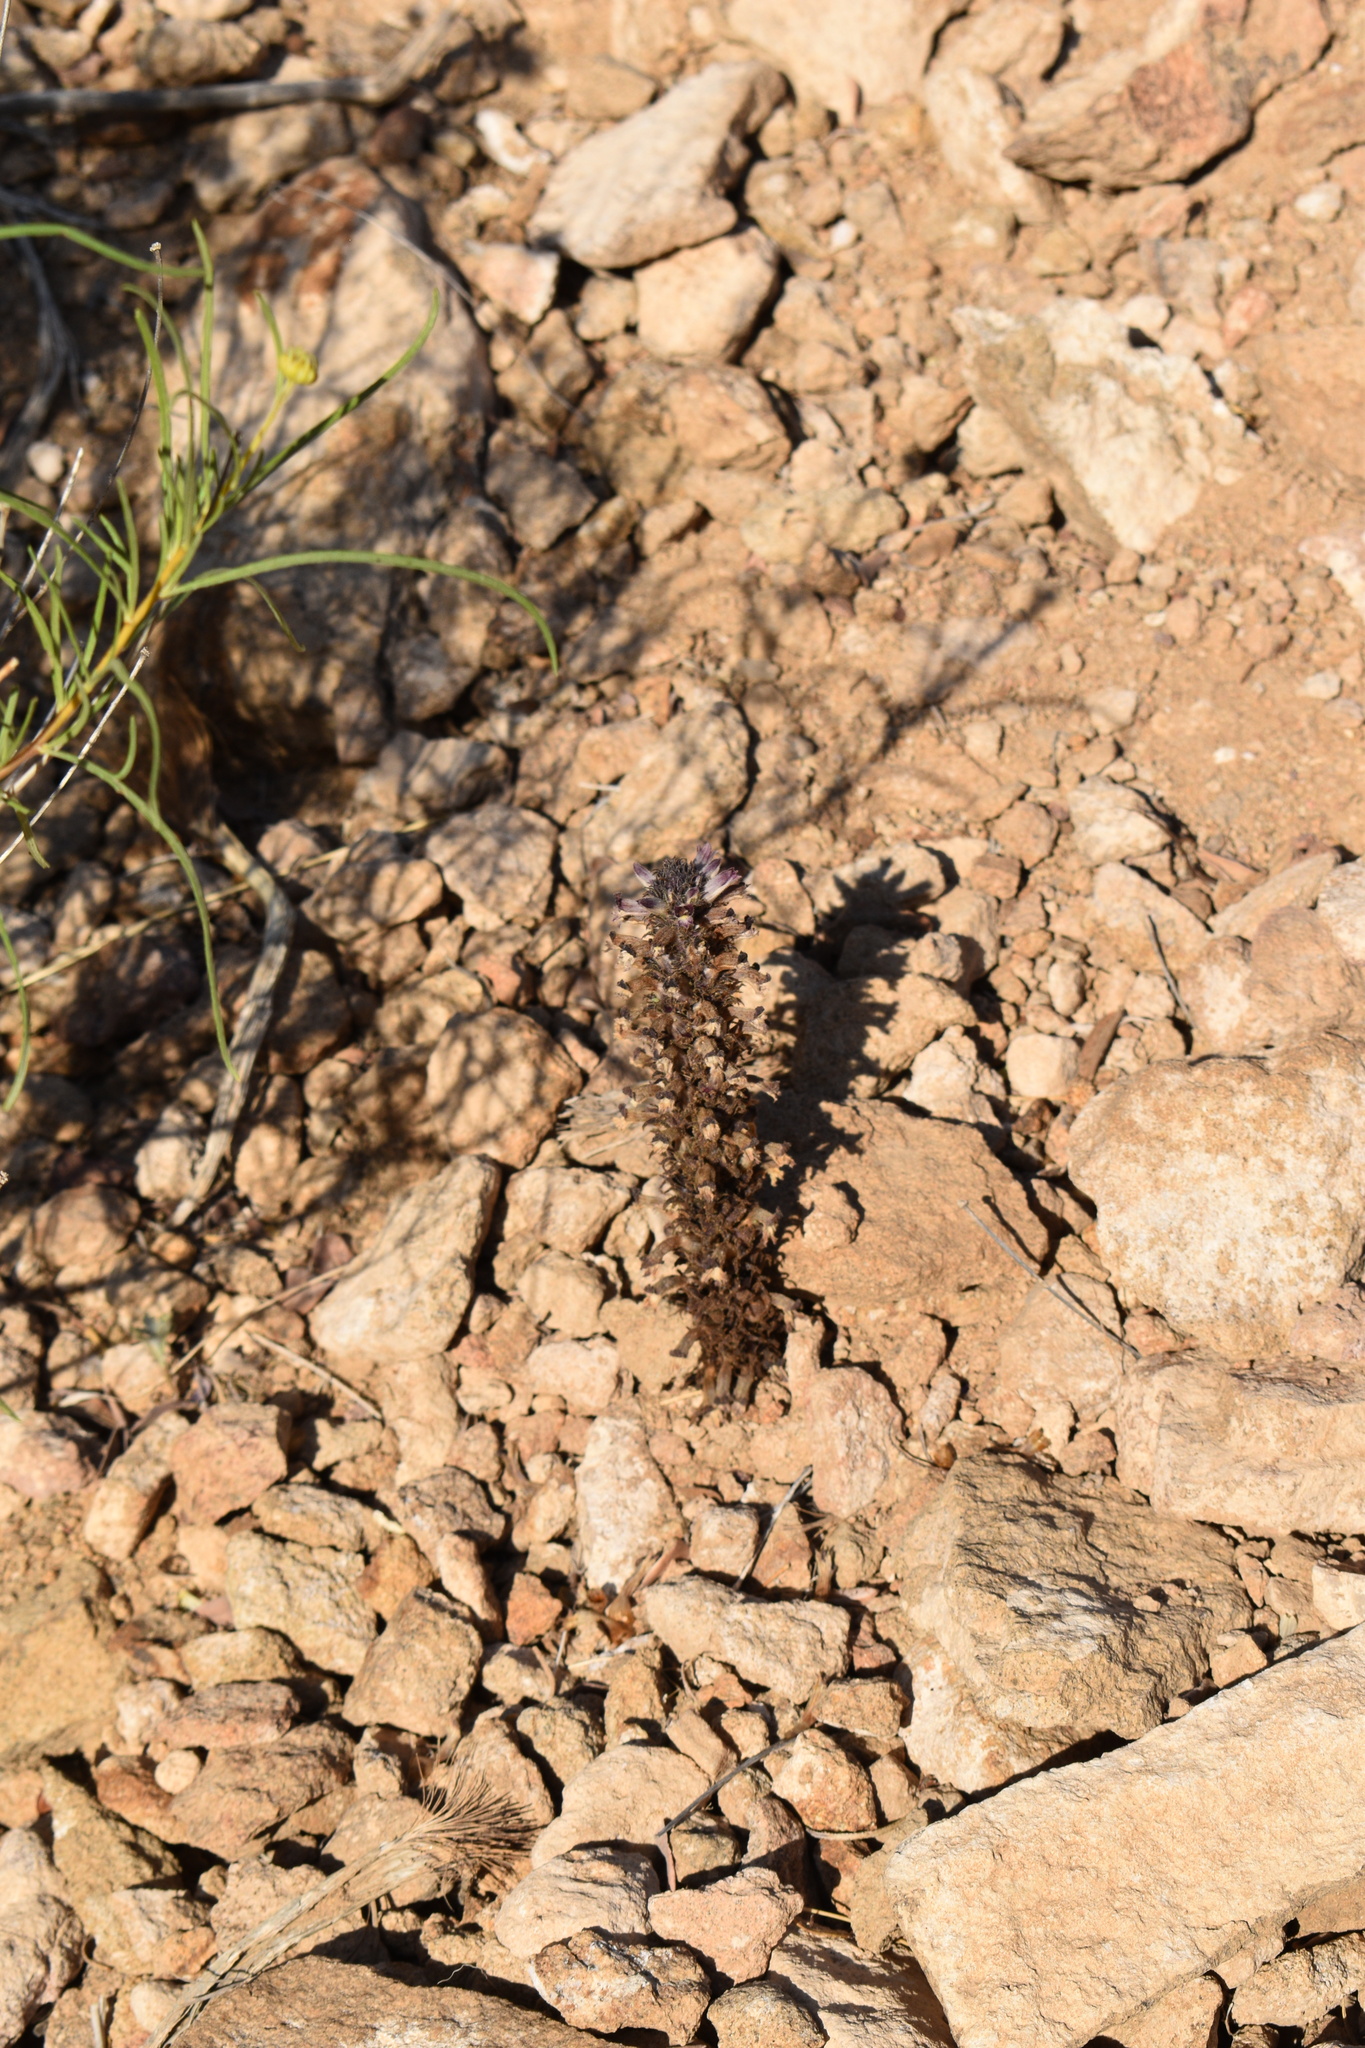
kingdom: Plantae
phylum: Tracheophyta
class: Magnoliopsida
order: Lamiales
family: Orobanchaceae
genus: Aphyllon
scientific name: Aphyllon cooperi
